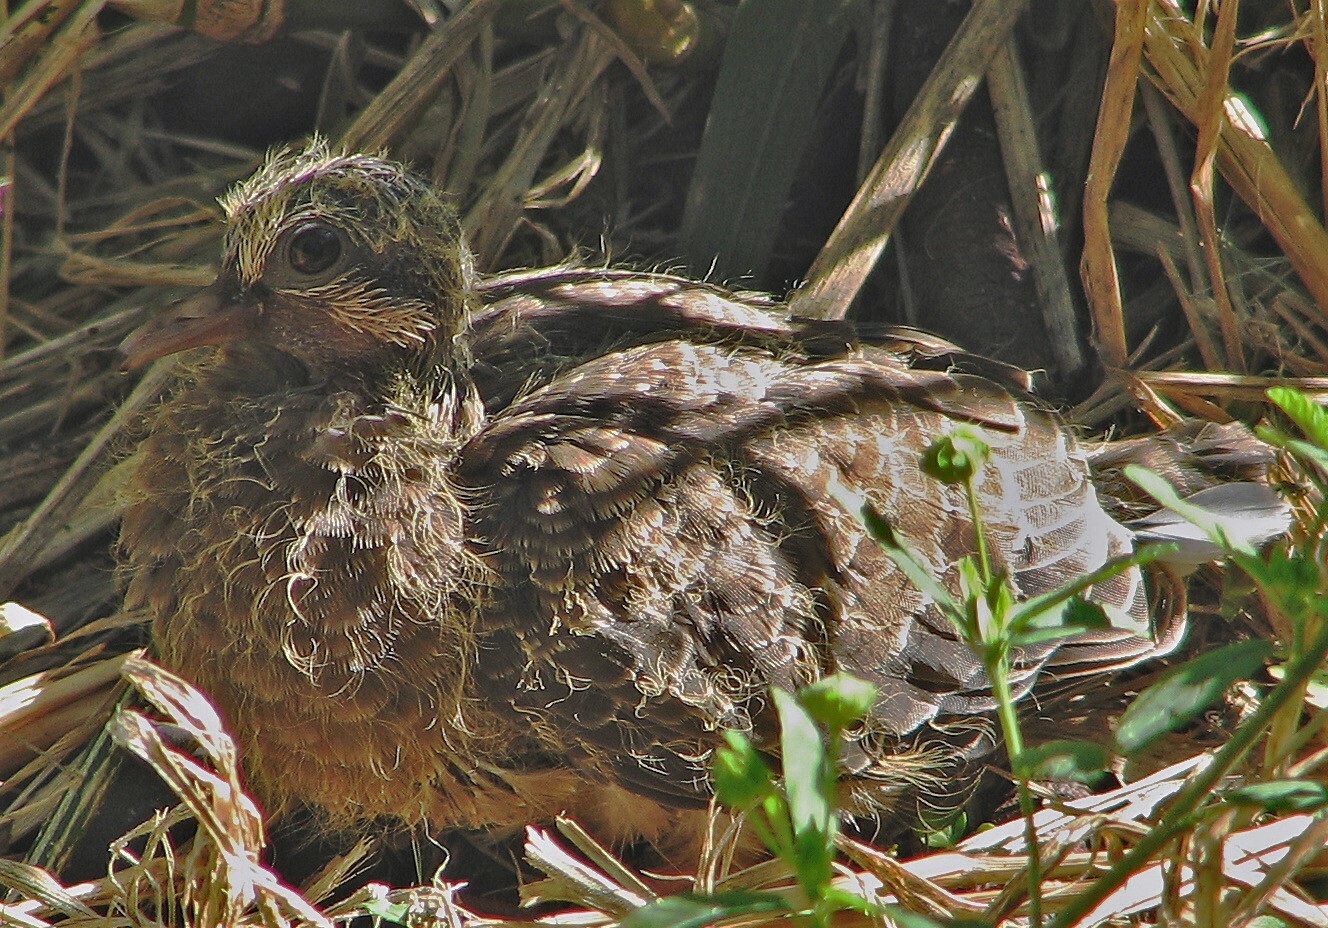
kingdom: Animalia
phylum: Chordata
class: Aves
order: Columbiformes
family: Columbidae
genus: Zenaida
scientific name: Zenaida auriculata
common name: Eared dove
